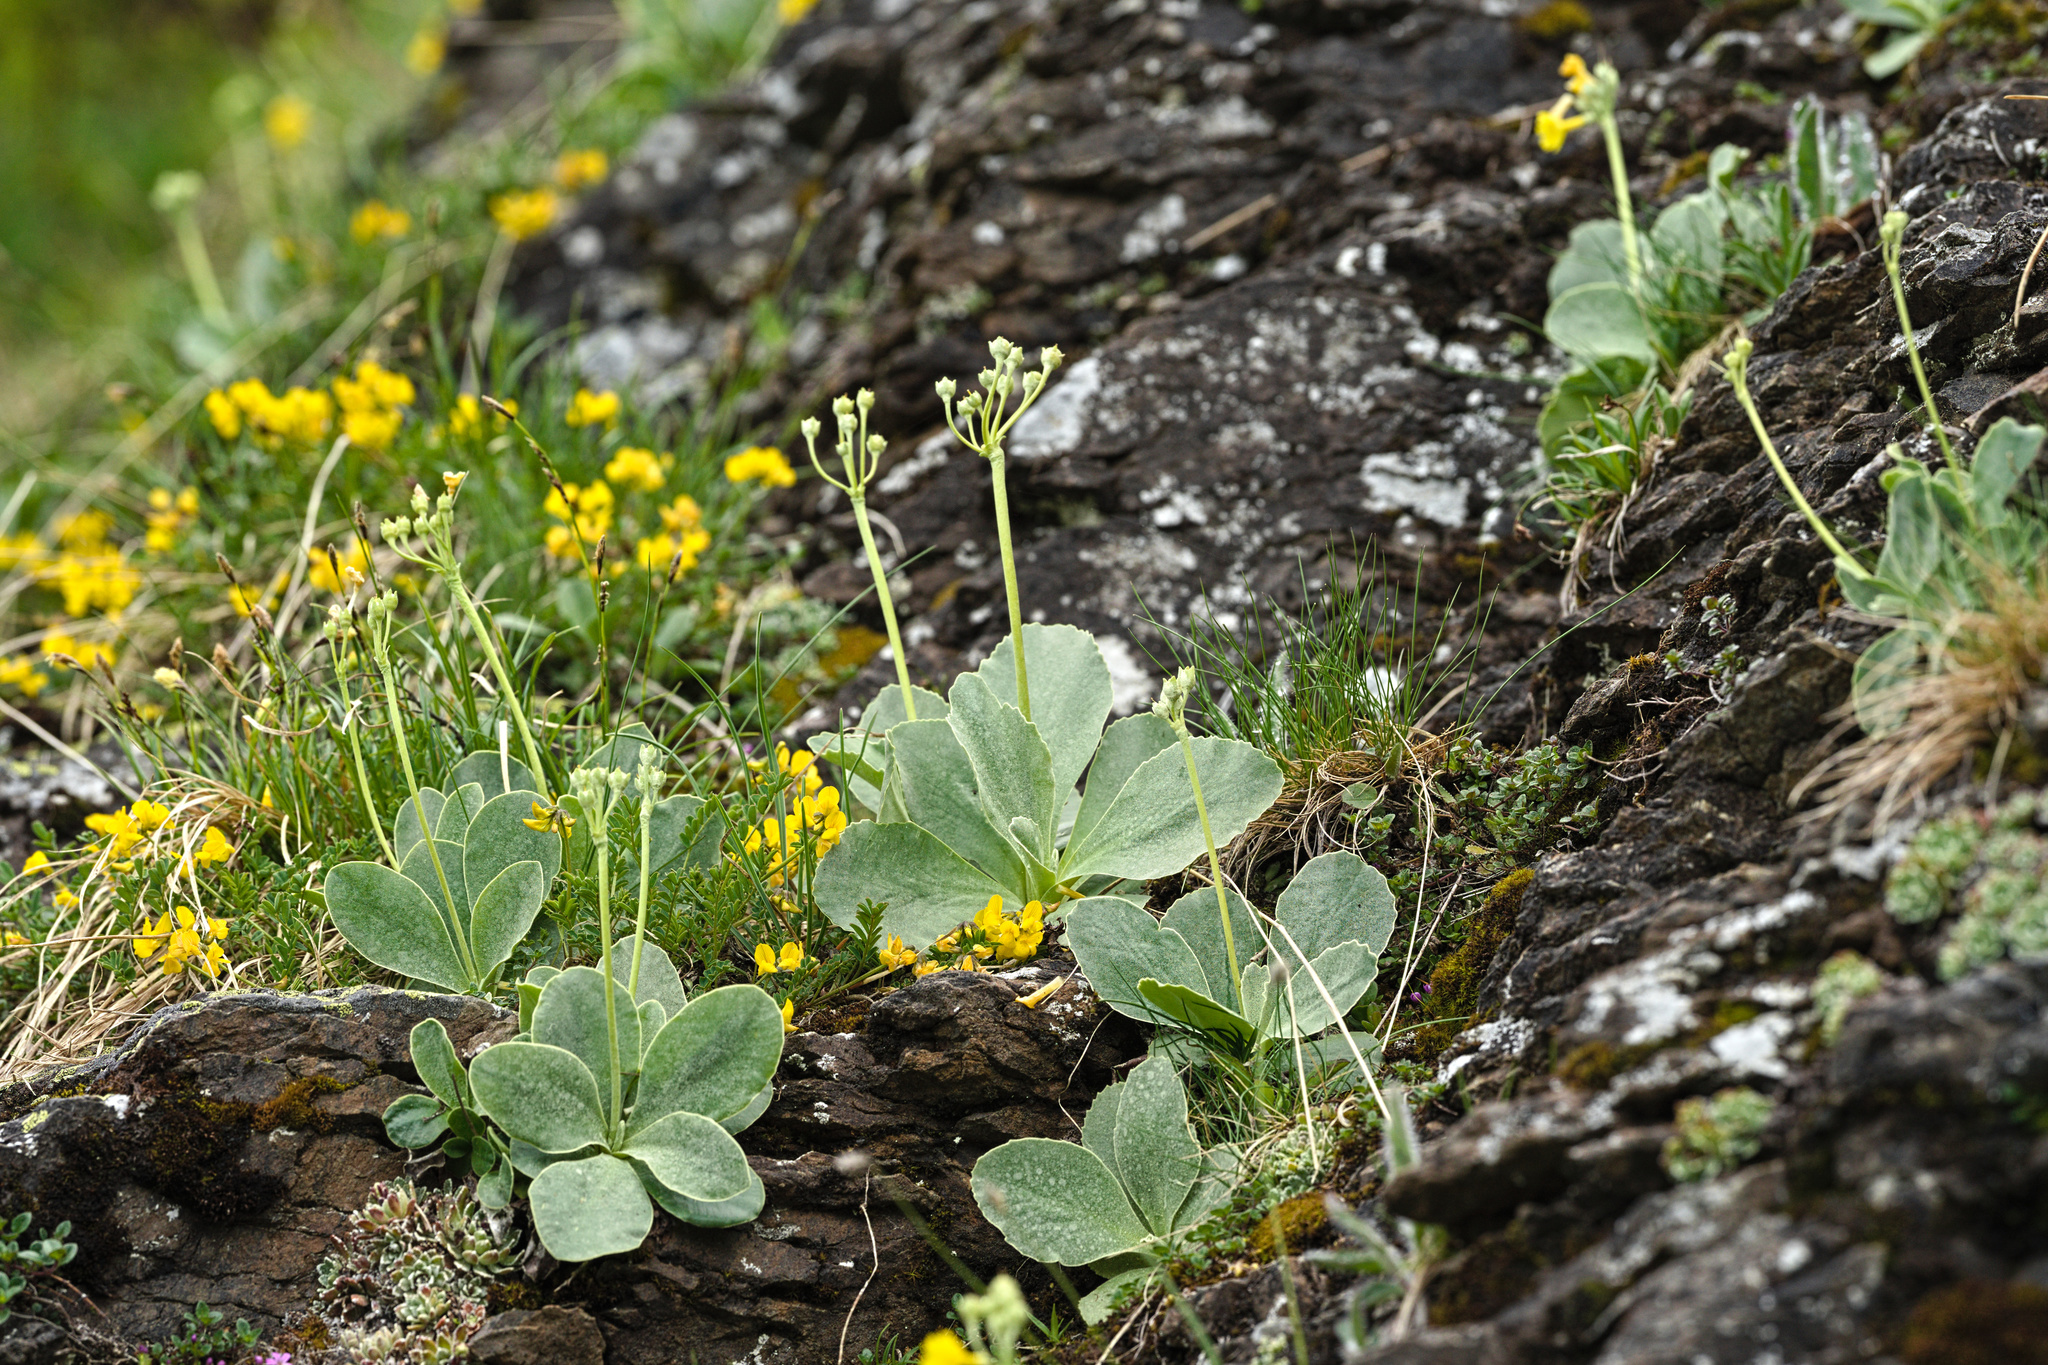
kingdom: Plantae
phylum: Tracheophyta
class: Magnoliopsida
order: Ericales
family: Primulaceae
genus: Primula
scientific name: Primula auricula
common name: Auricula
